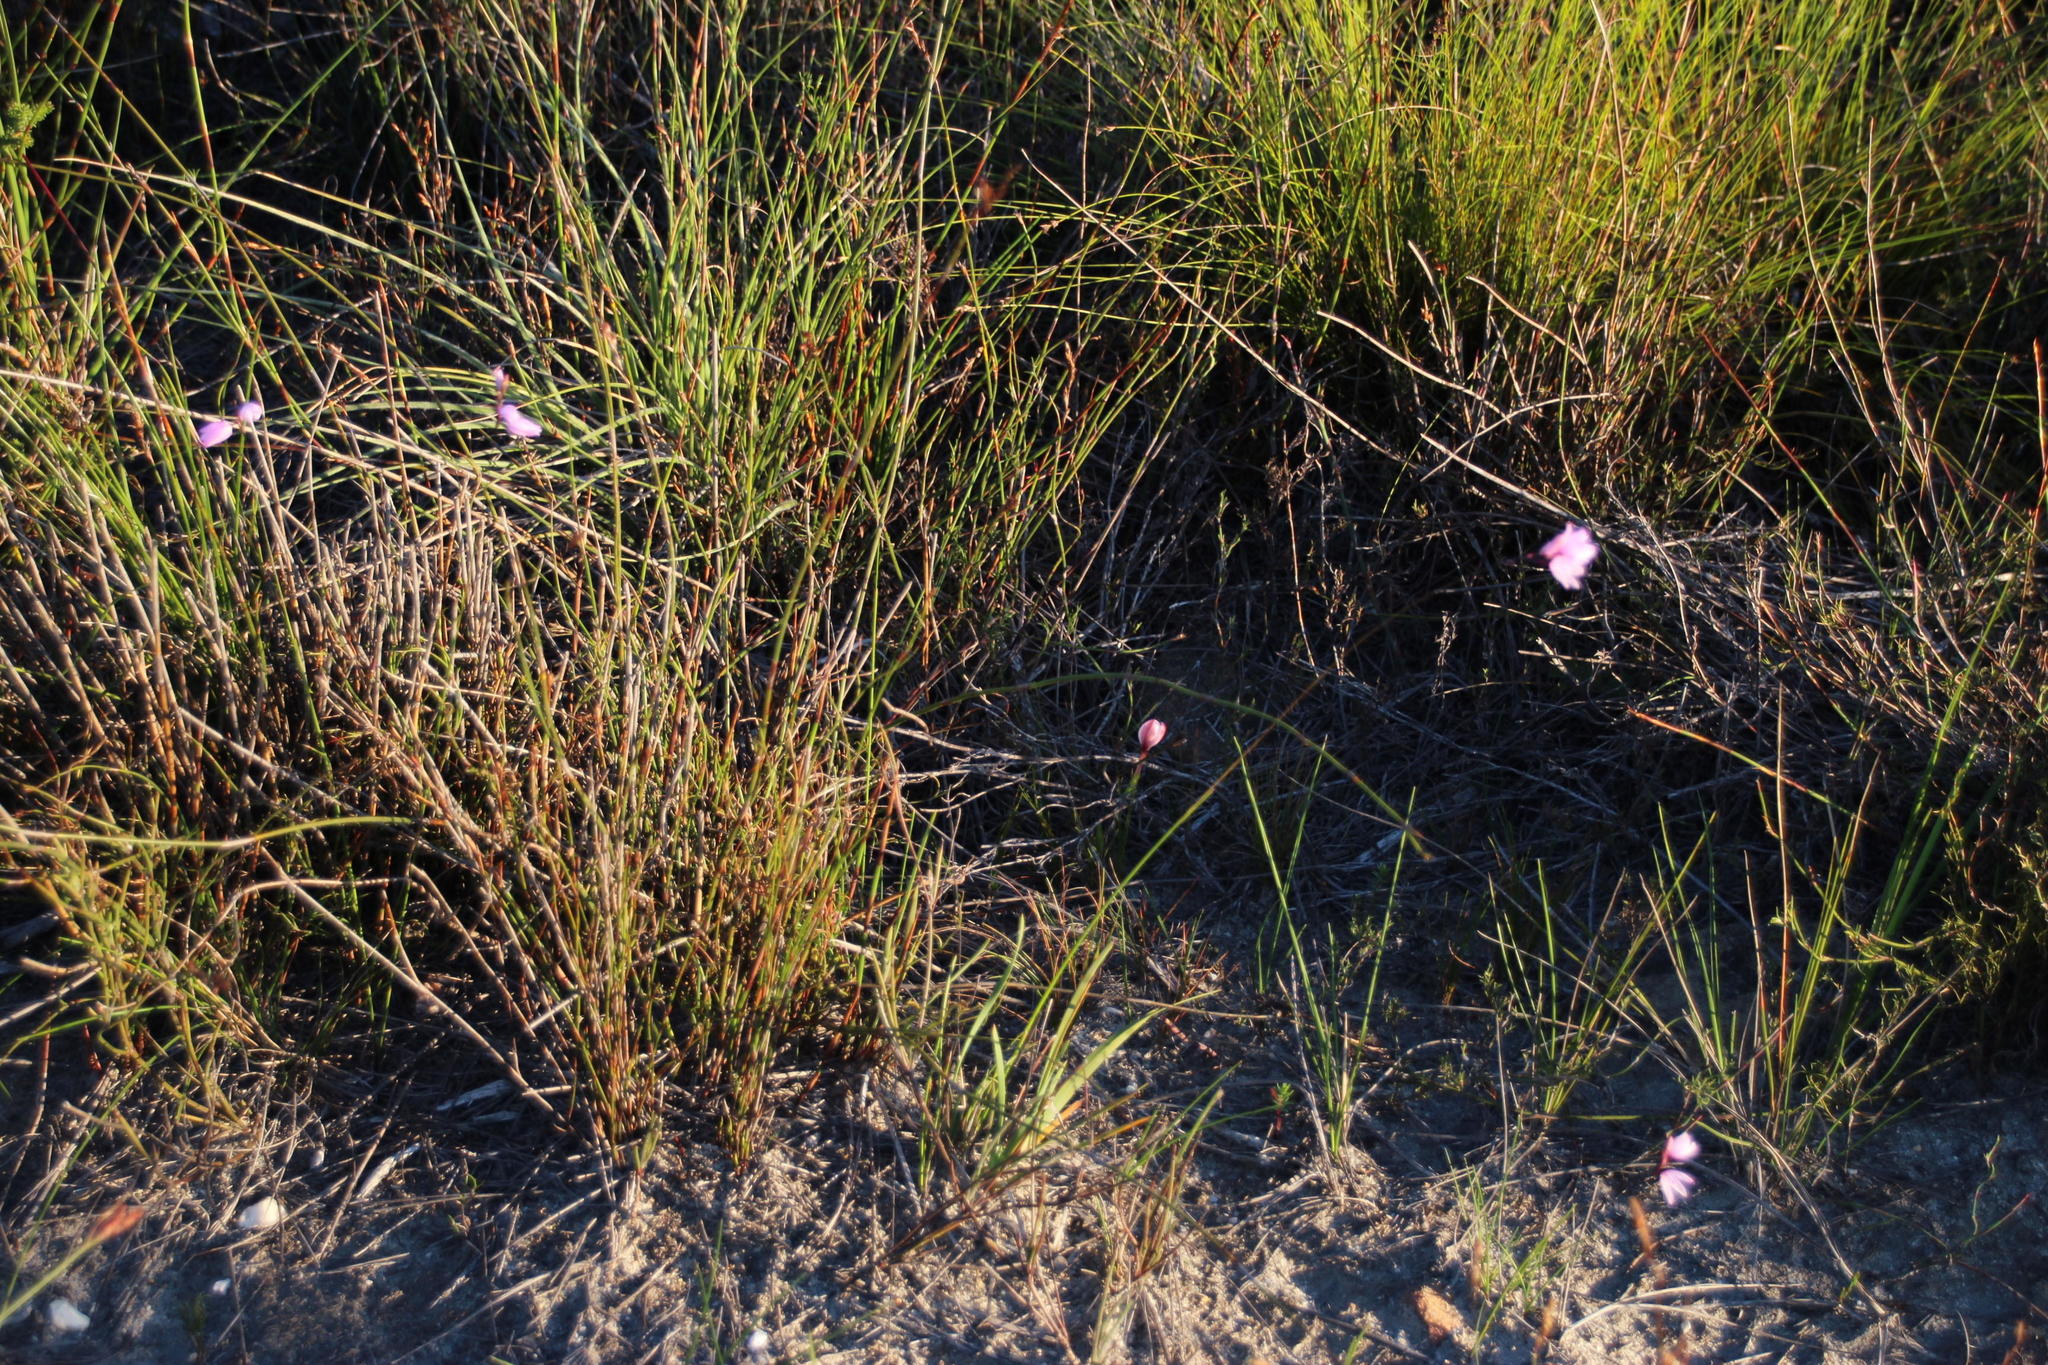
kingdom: Plantae
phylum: Tracheophyta
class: Liliopsida
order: Asparagales
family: Iridaceae
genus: Ixia
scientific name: Ixia micrandra
